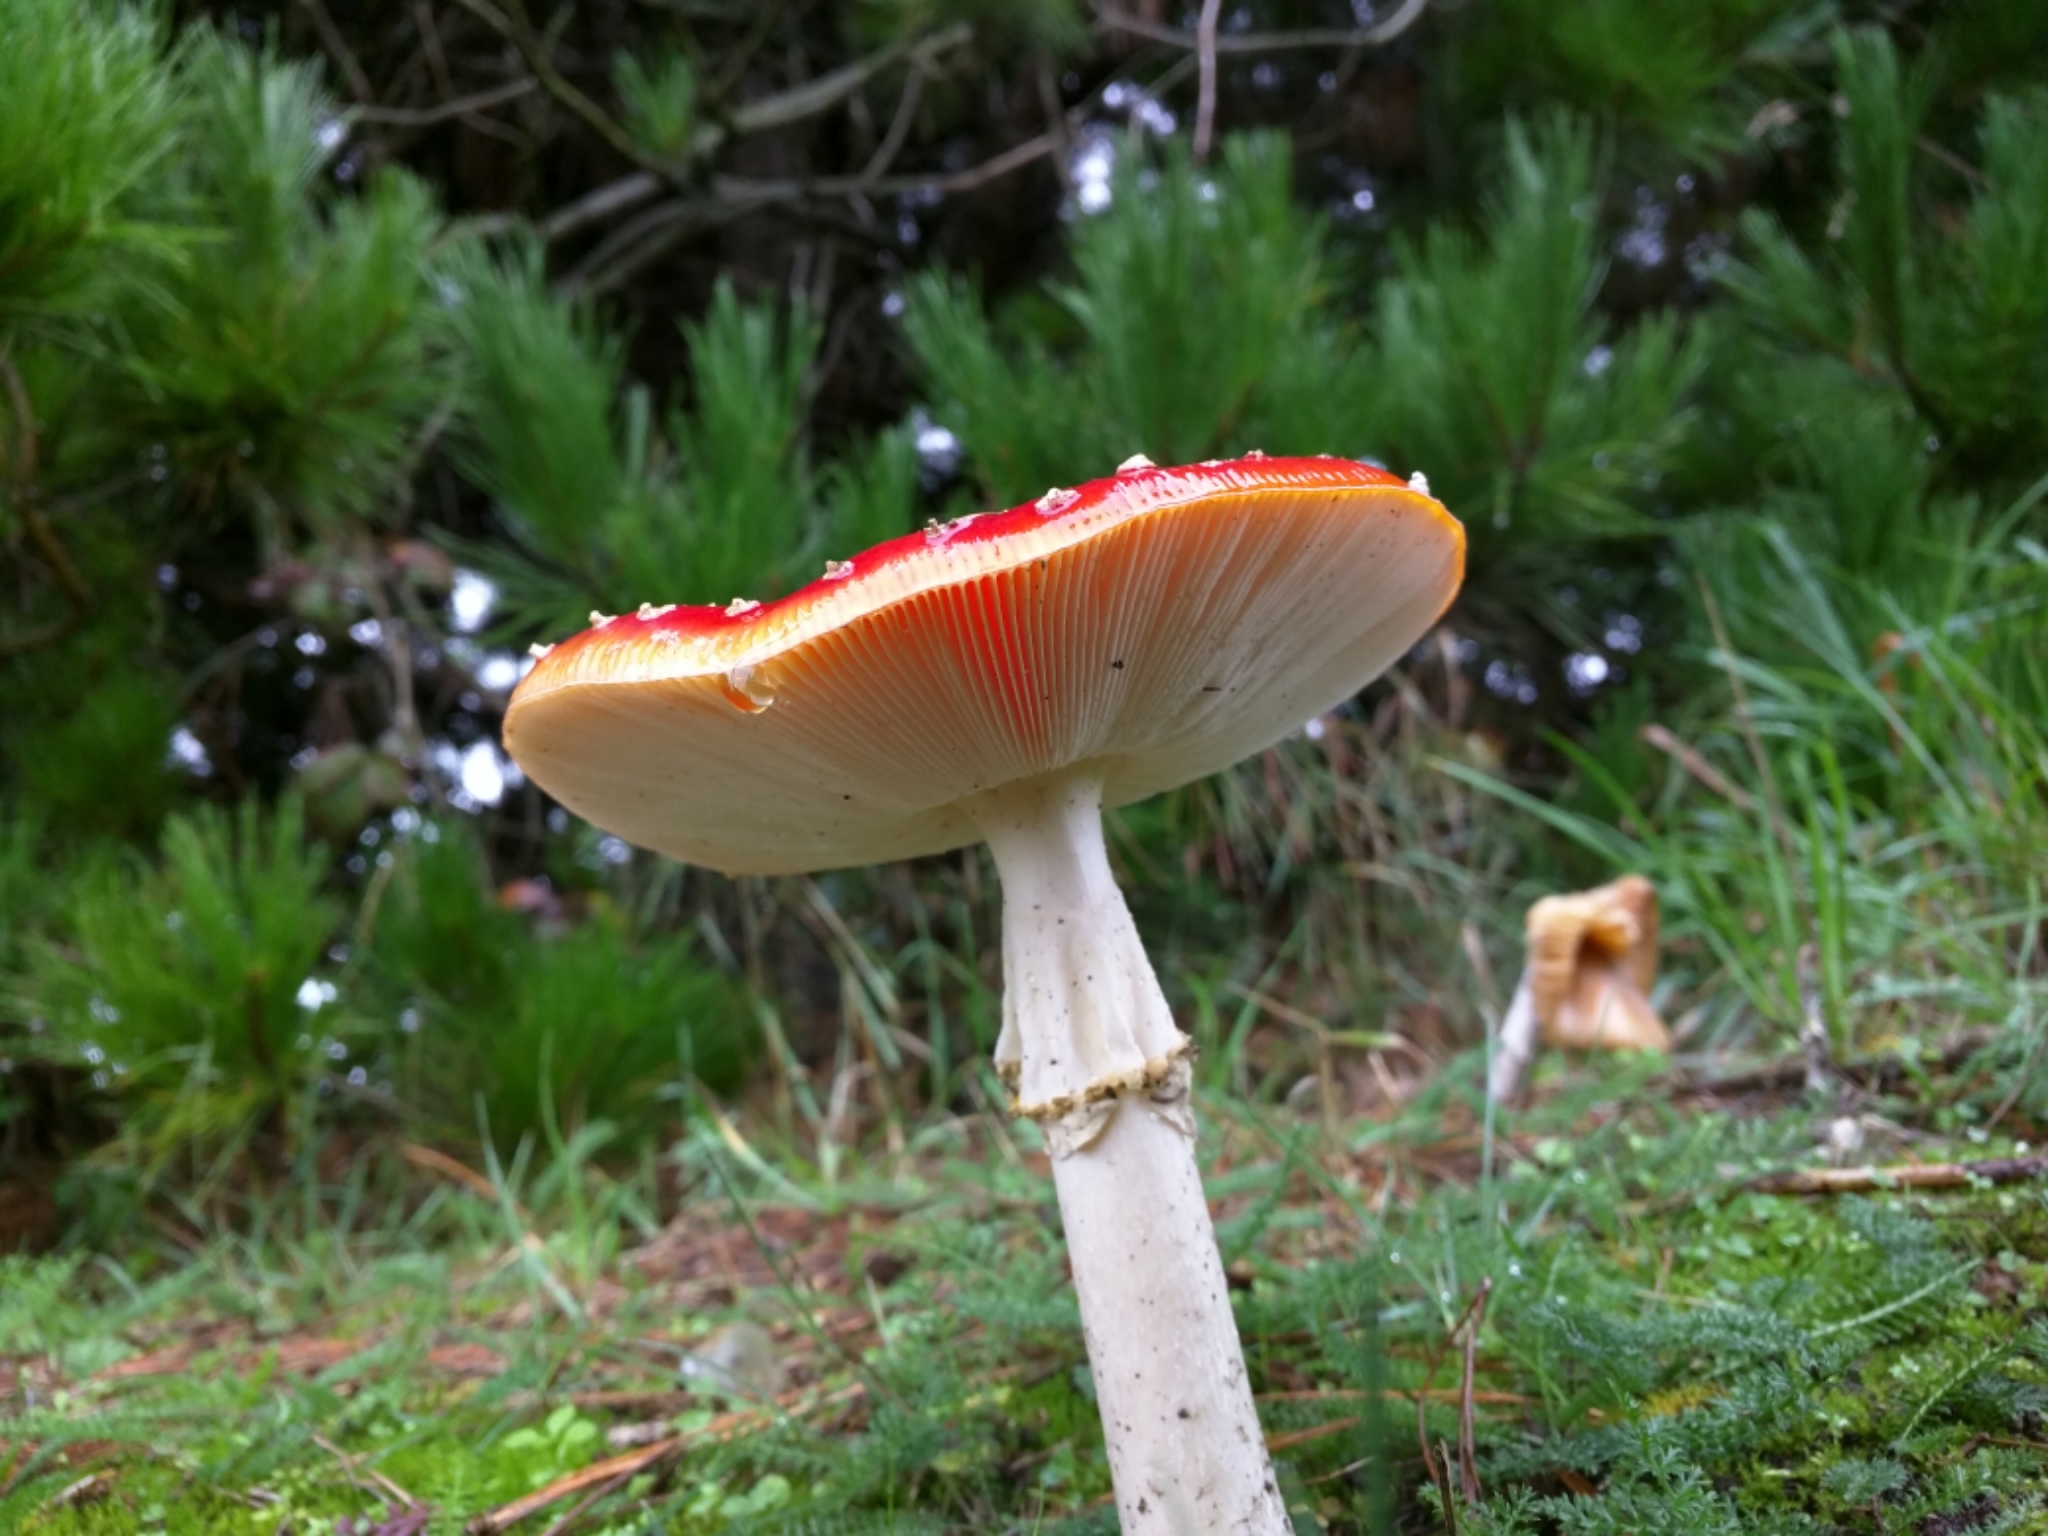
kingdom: Fungi
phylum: Basidiomycota
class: Agaricomycetes
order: Agaricales
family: Amanitaceae
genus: Amanita
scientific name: Amanita muscaria
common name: Fly agaric
